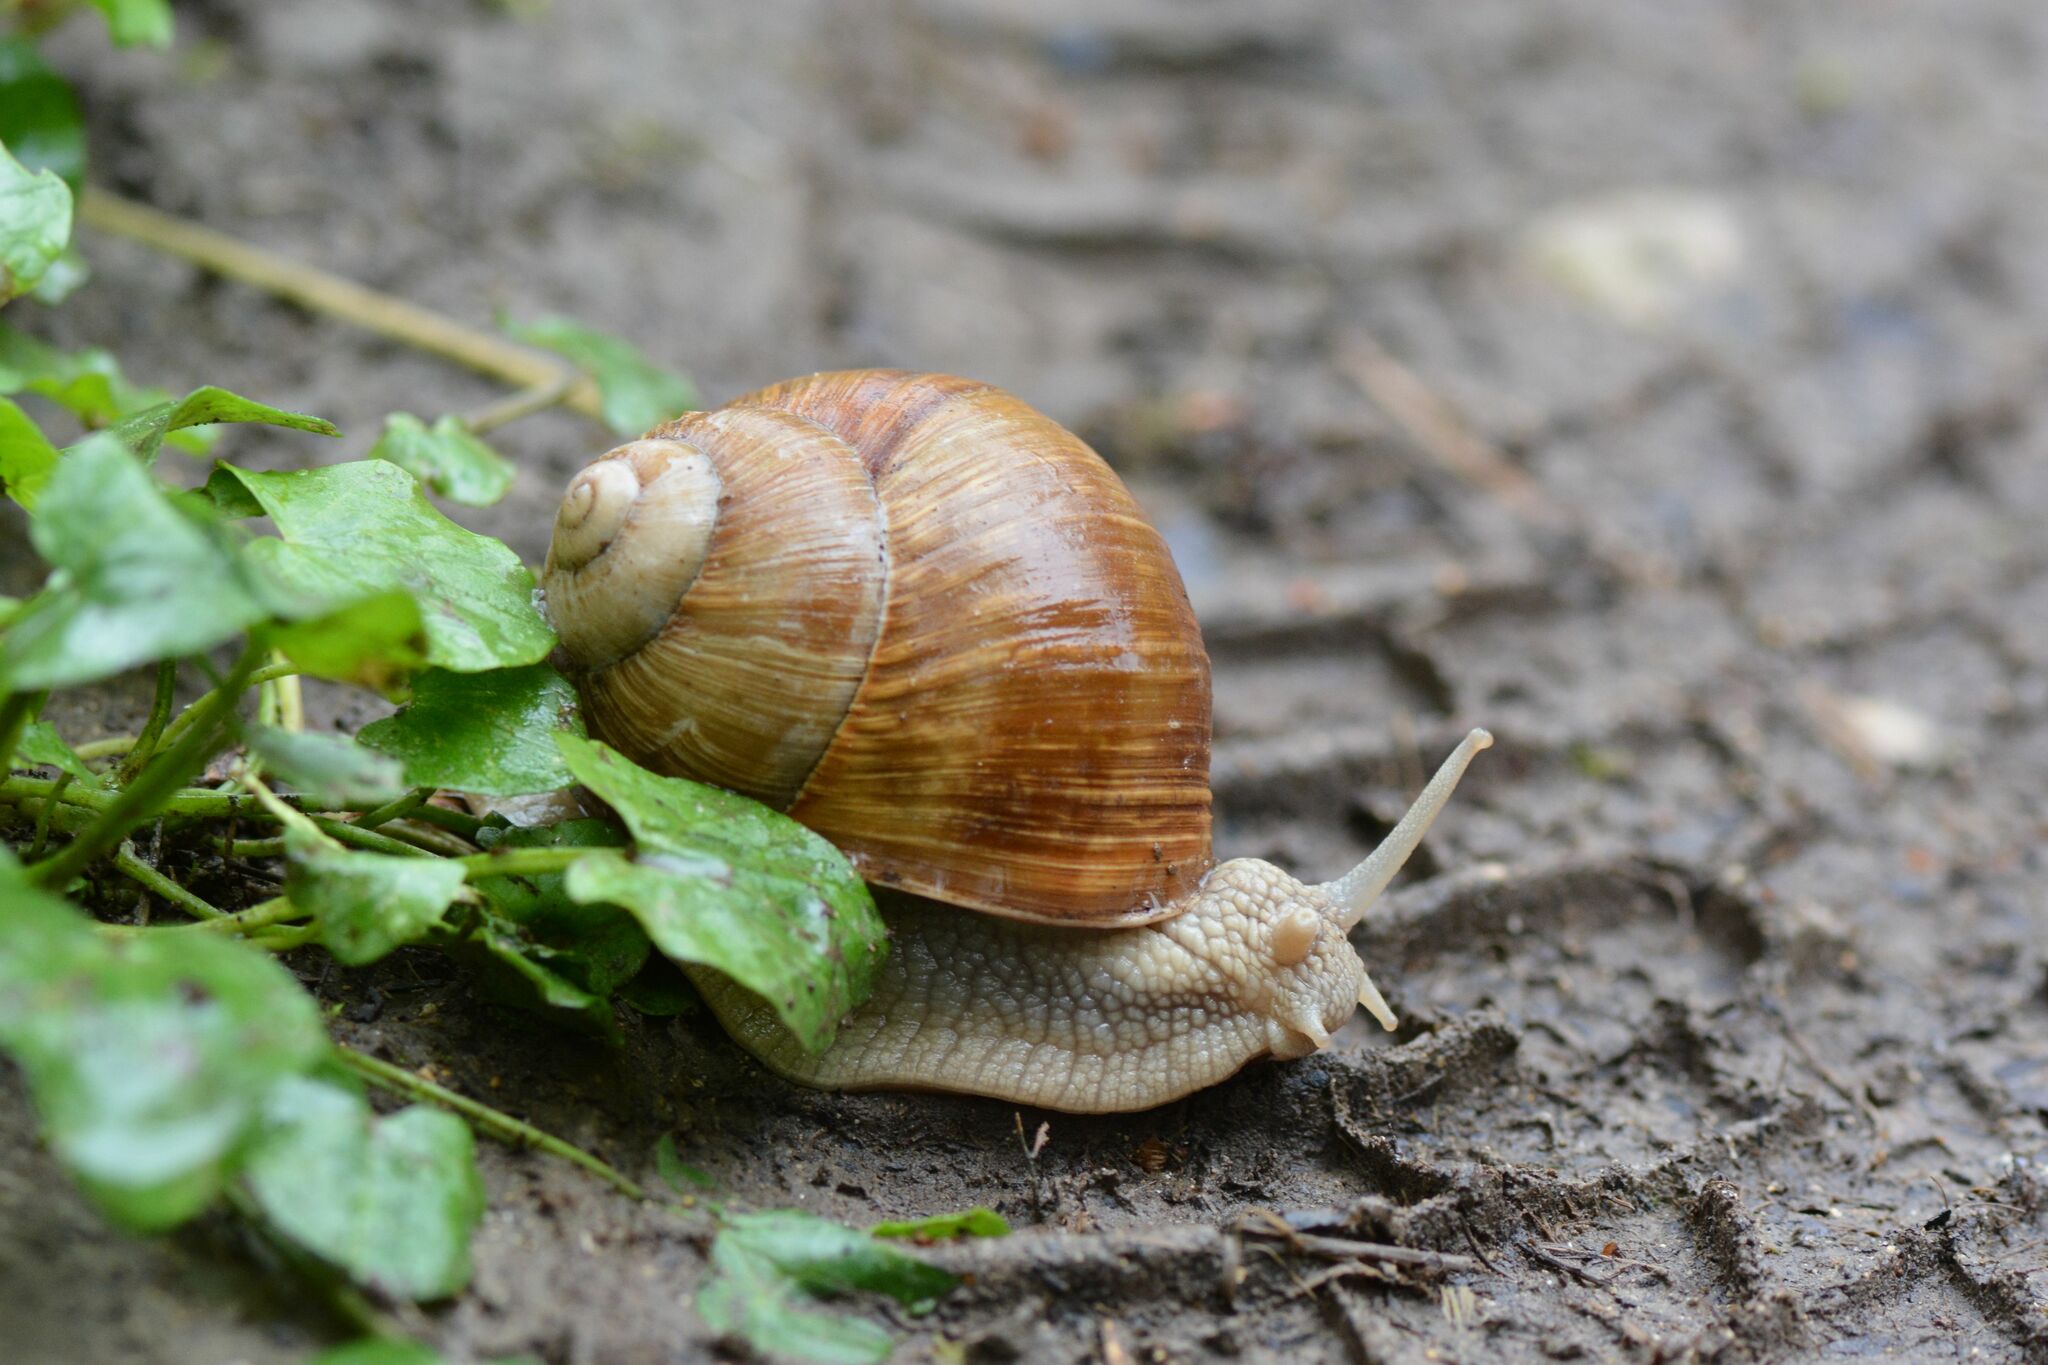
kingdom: Animalia
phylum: Mollusca
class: Gastropoda
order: Stylommatophora
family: Helicidae
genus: Helix
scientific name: Helix pomatia
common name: Roman snail
